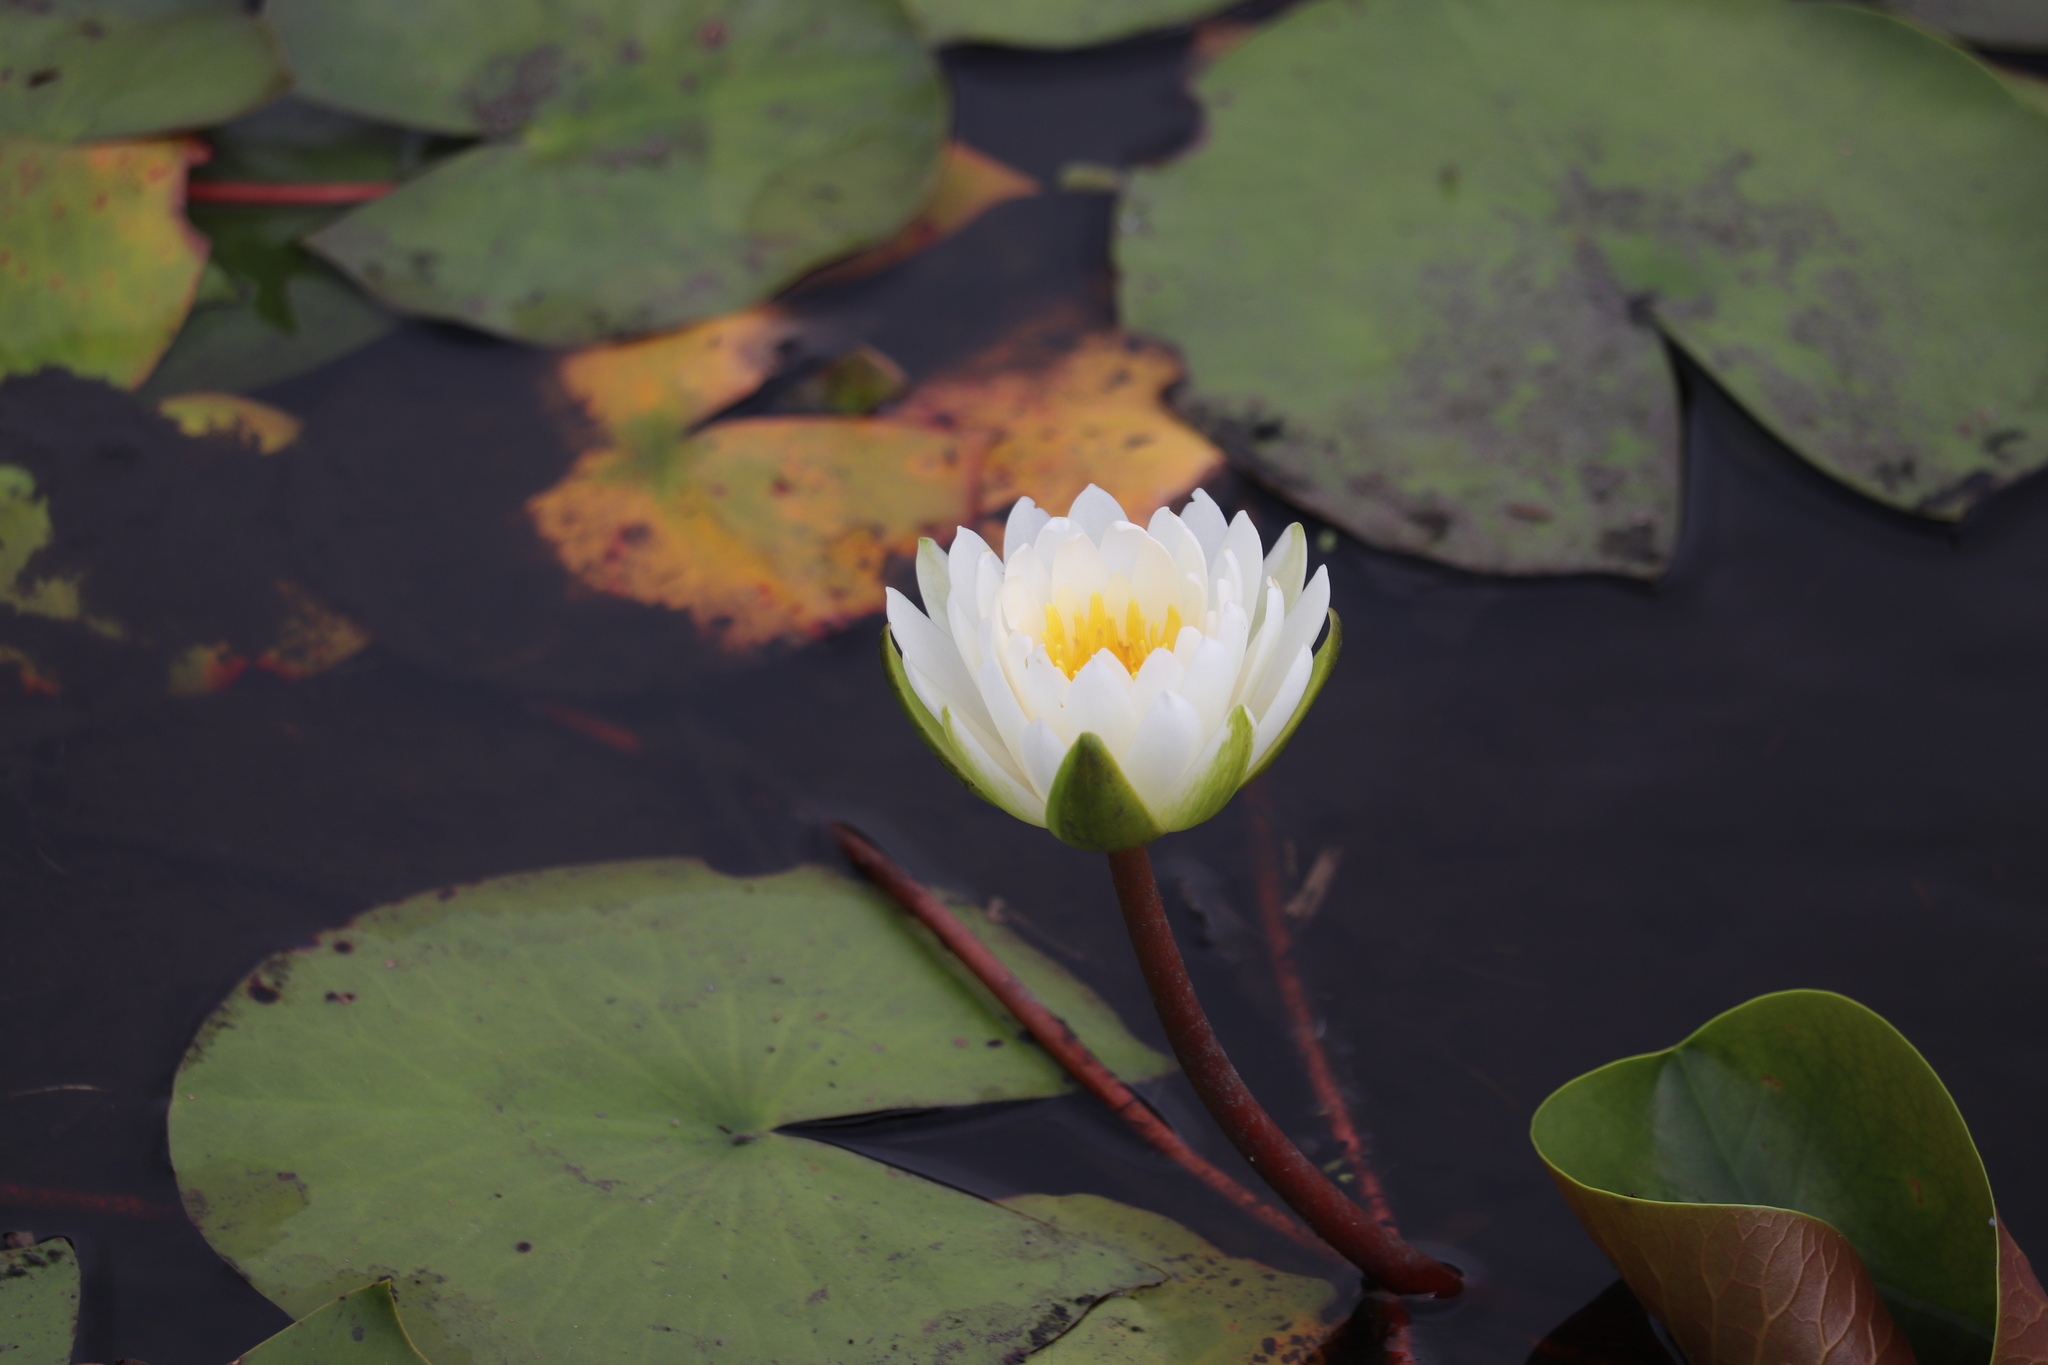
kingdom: Plantae
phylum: Tracheophyta
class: Magnoliopsida
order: Nymphaeales
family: Nymphaeaceae
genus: Nymphaea
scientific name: Nymphaea odorata
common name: Fragrant water-lily
